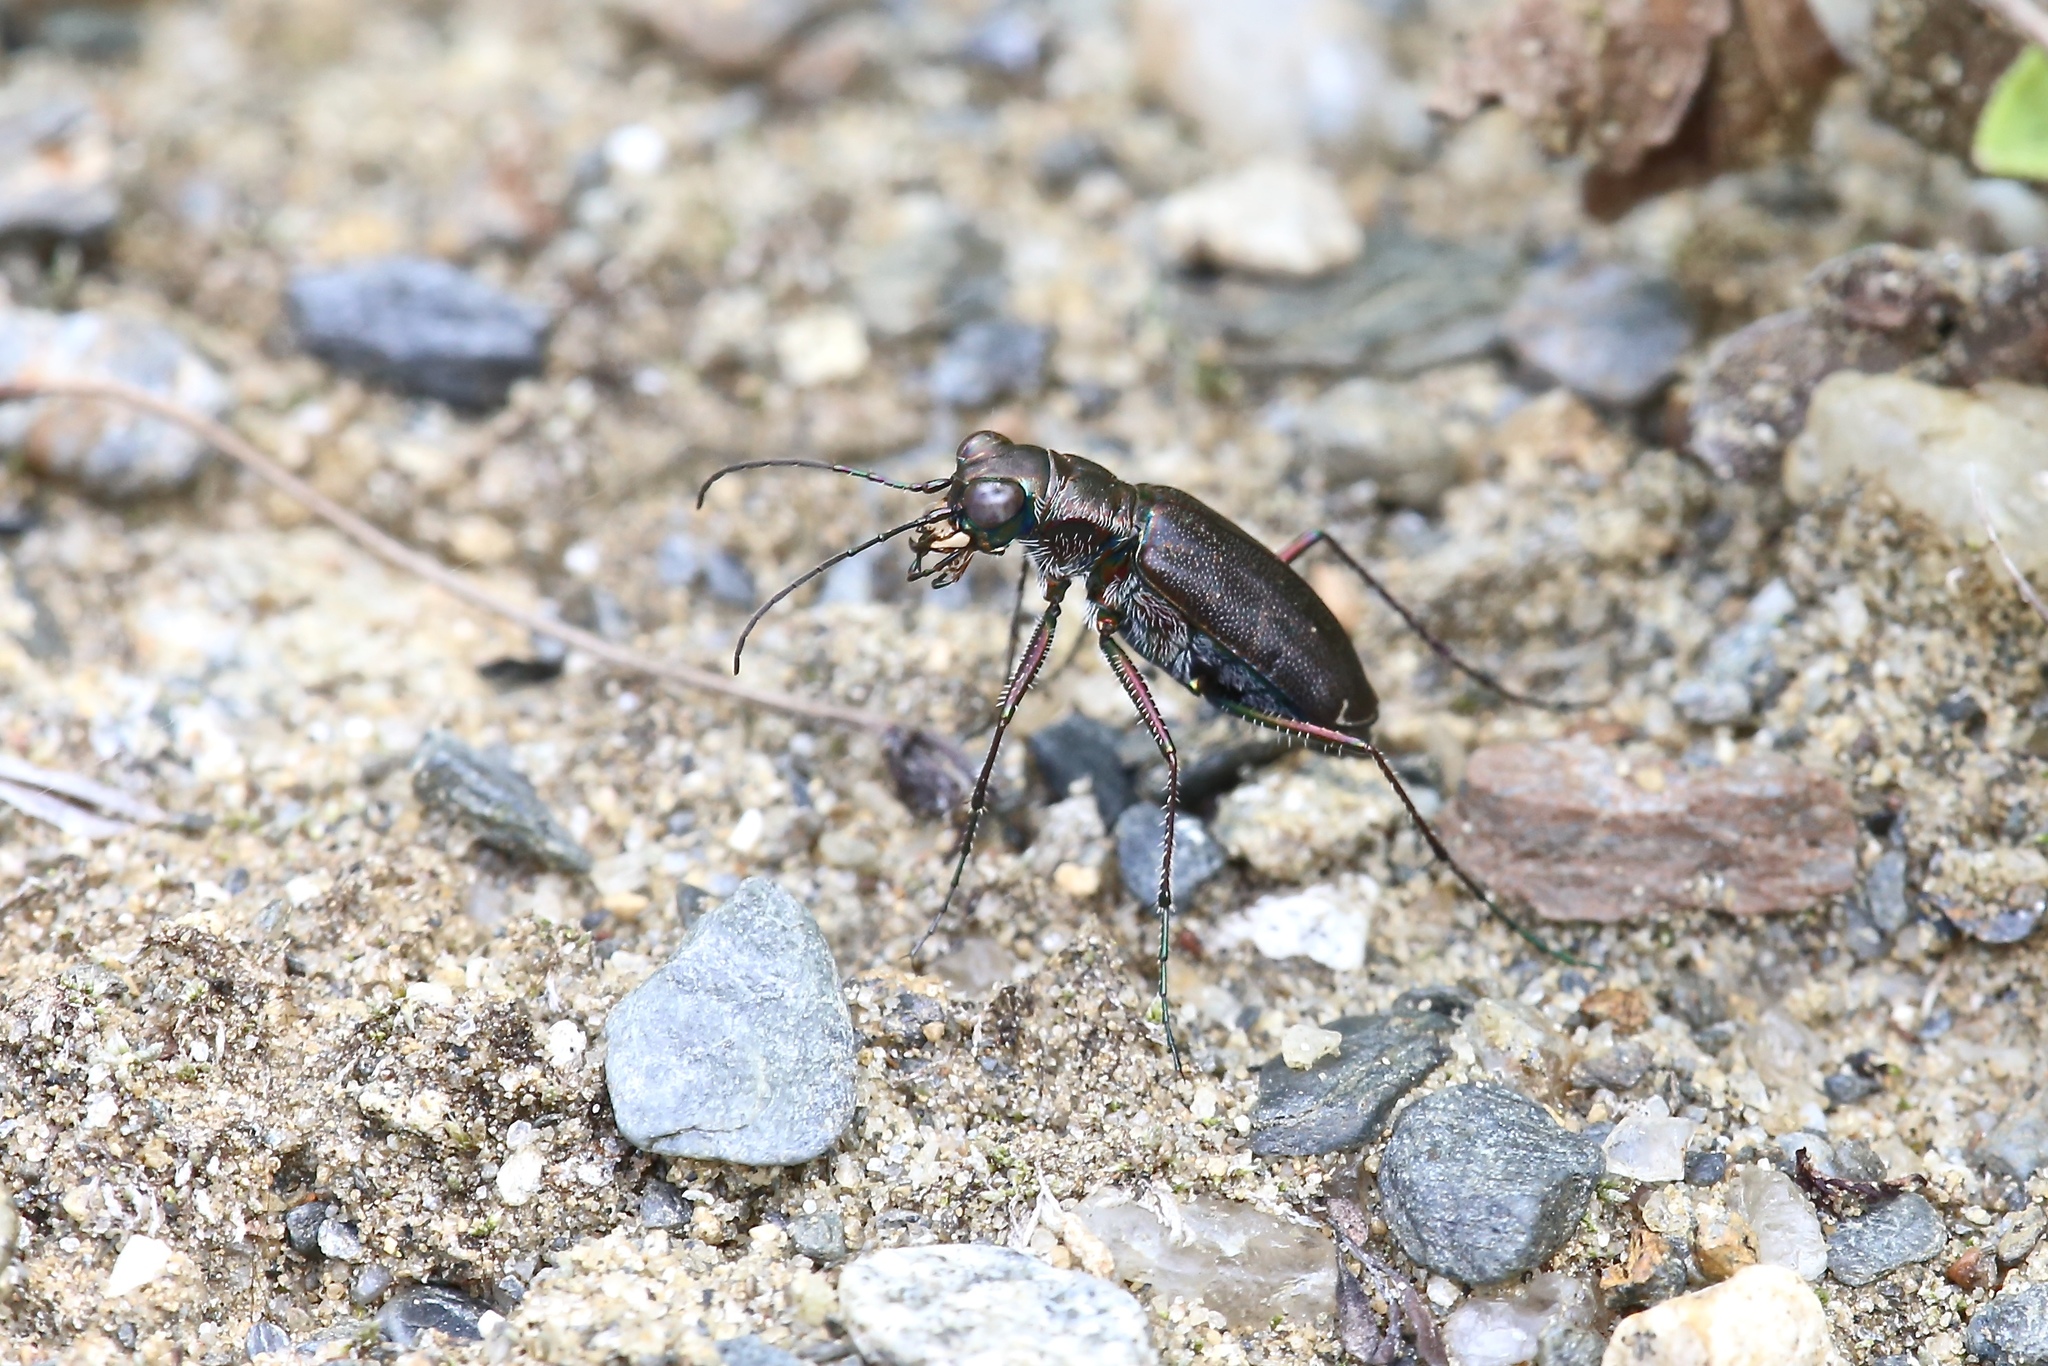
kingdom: Animalia
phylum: Arthropoda
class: Insecta
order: Coleoptera
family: Carabidae
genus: Cicindela
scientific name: Cicindela punctulata
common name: Punctured tiger beetle
